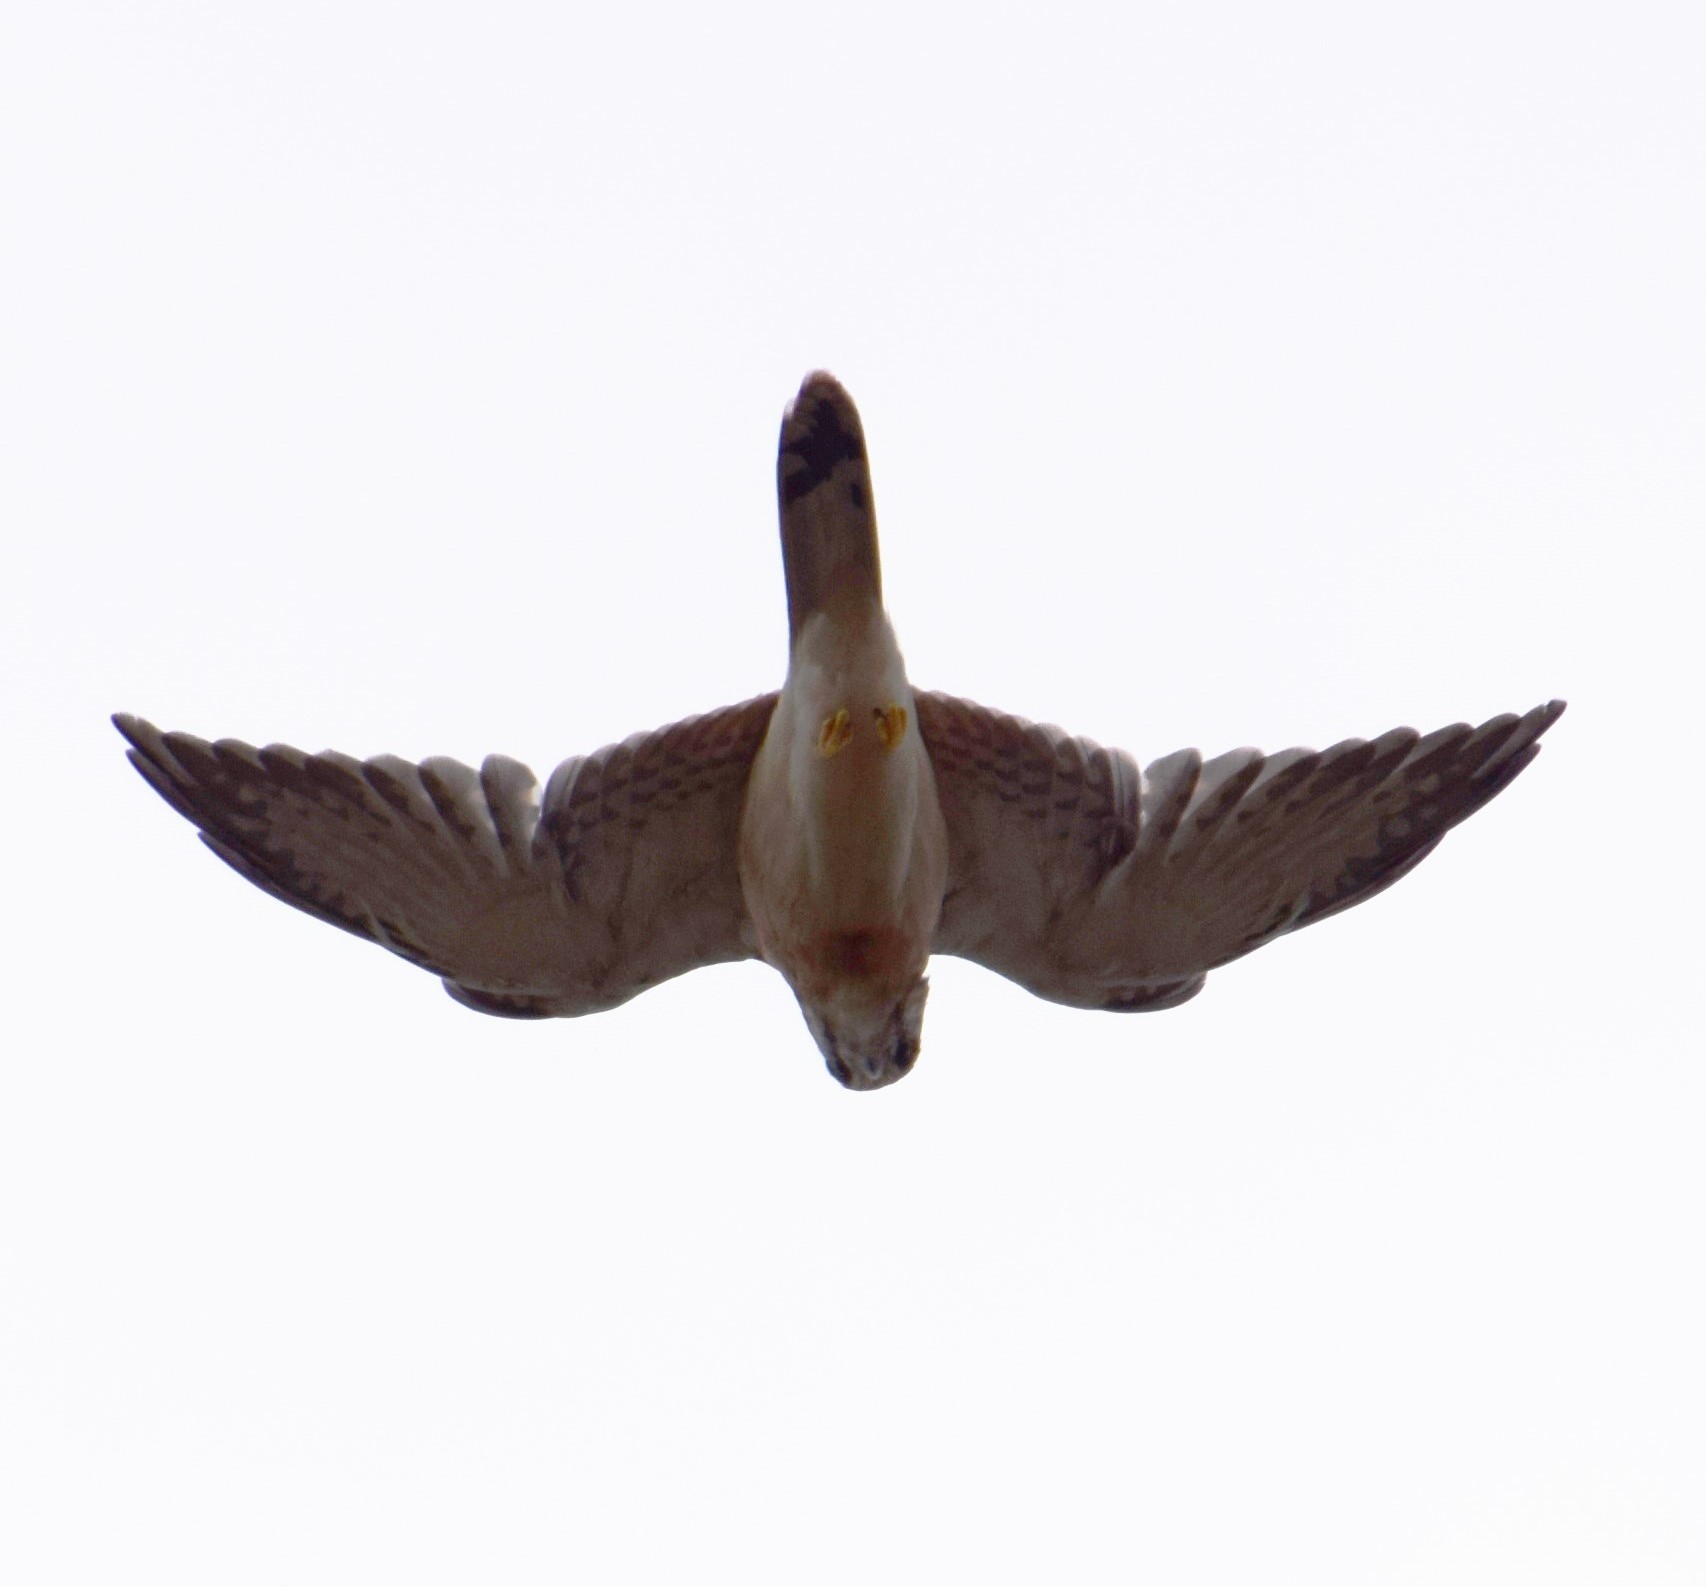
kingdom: Animalia
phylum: Chordata
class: Aves
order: Falconiformes
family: Falconidae
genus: Falco
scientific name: Falco cenchroides
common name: Nankeen kestrel
